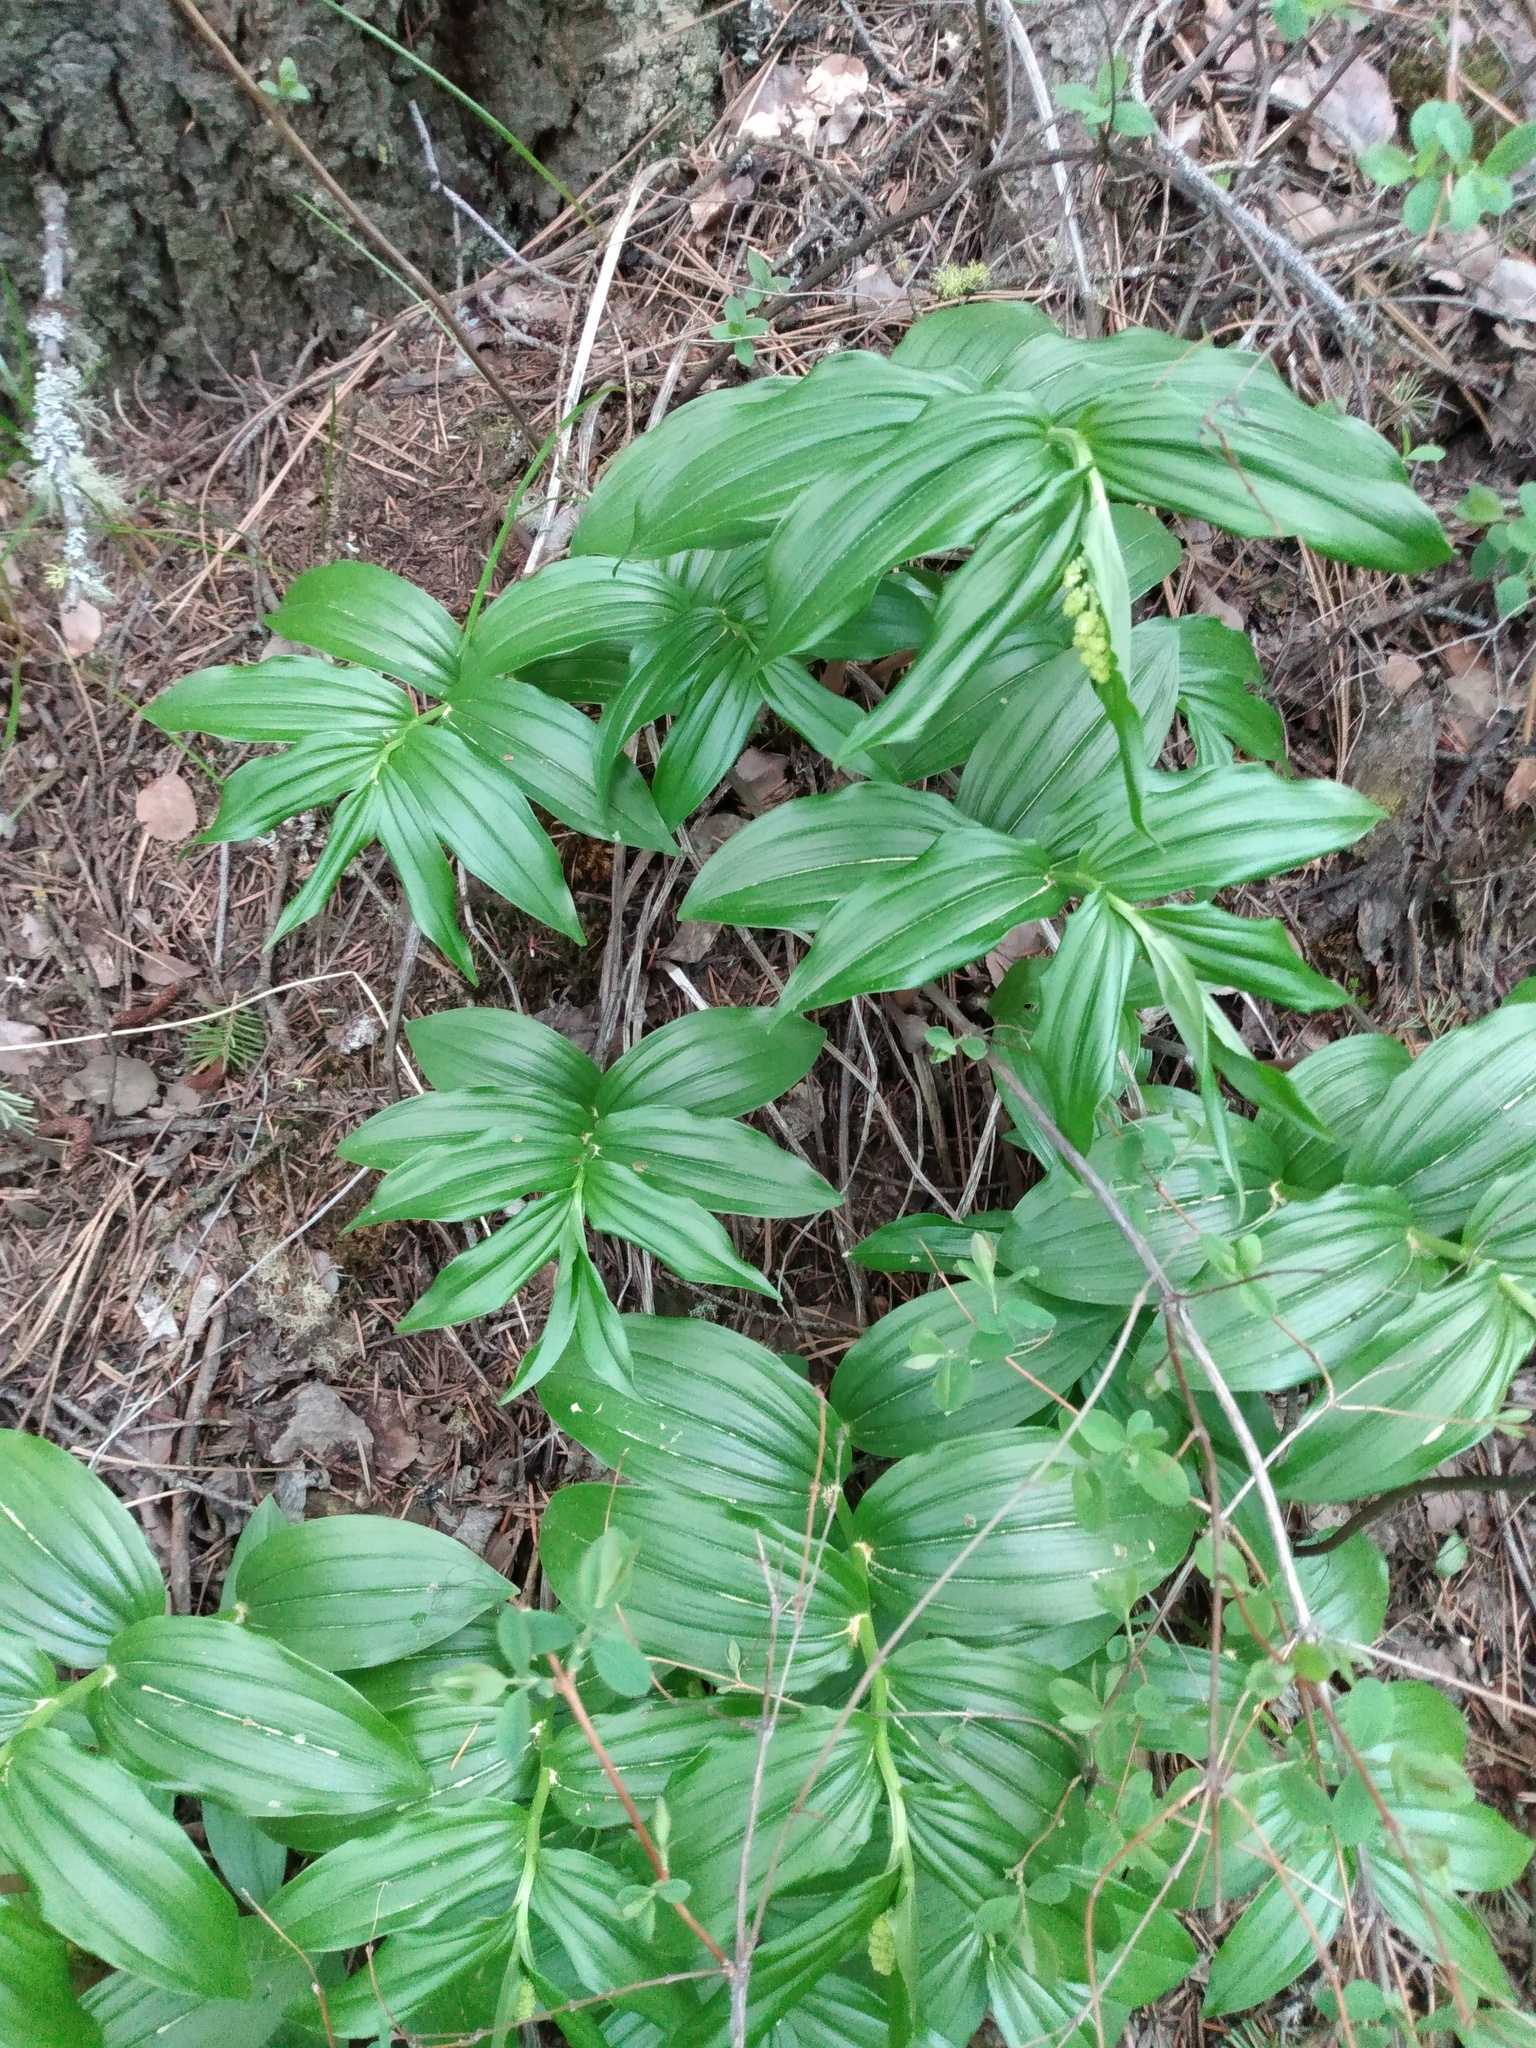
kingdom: Plantae
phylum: Tracheophyta
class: Liliopsida
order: Asparagales
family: Asparagaceae
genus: Maianthemum
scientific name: Maianthemum racemosum
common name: False spikenard
